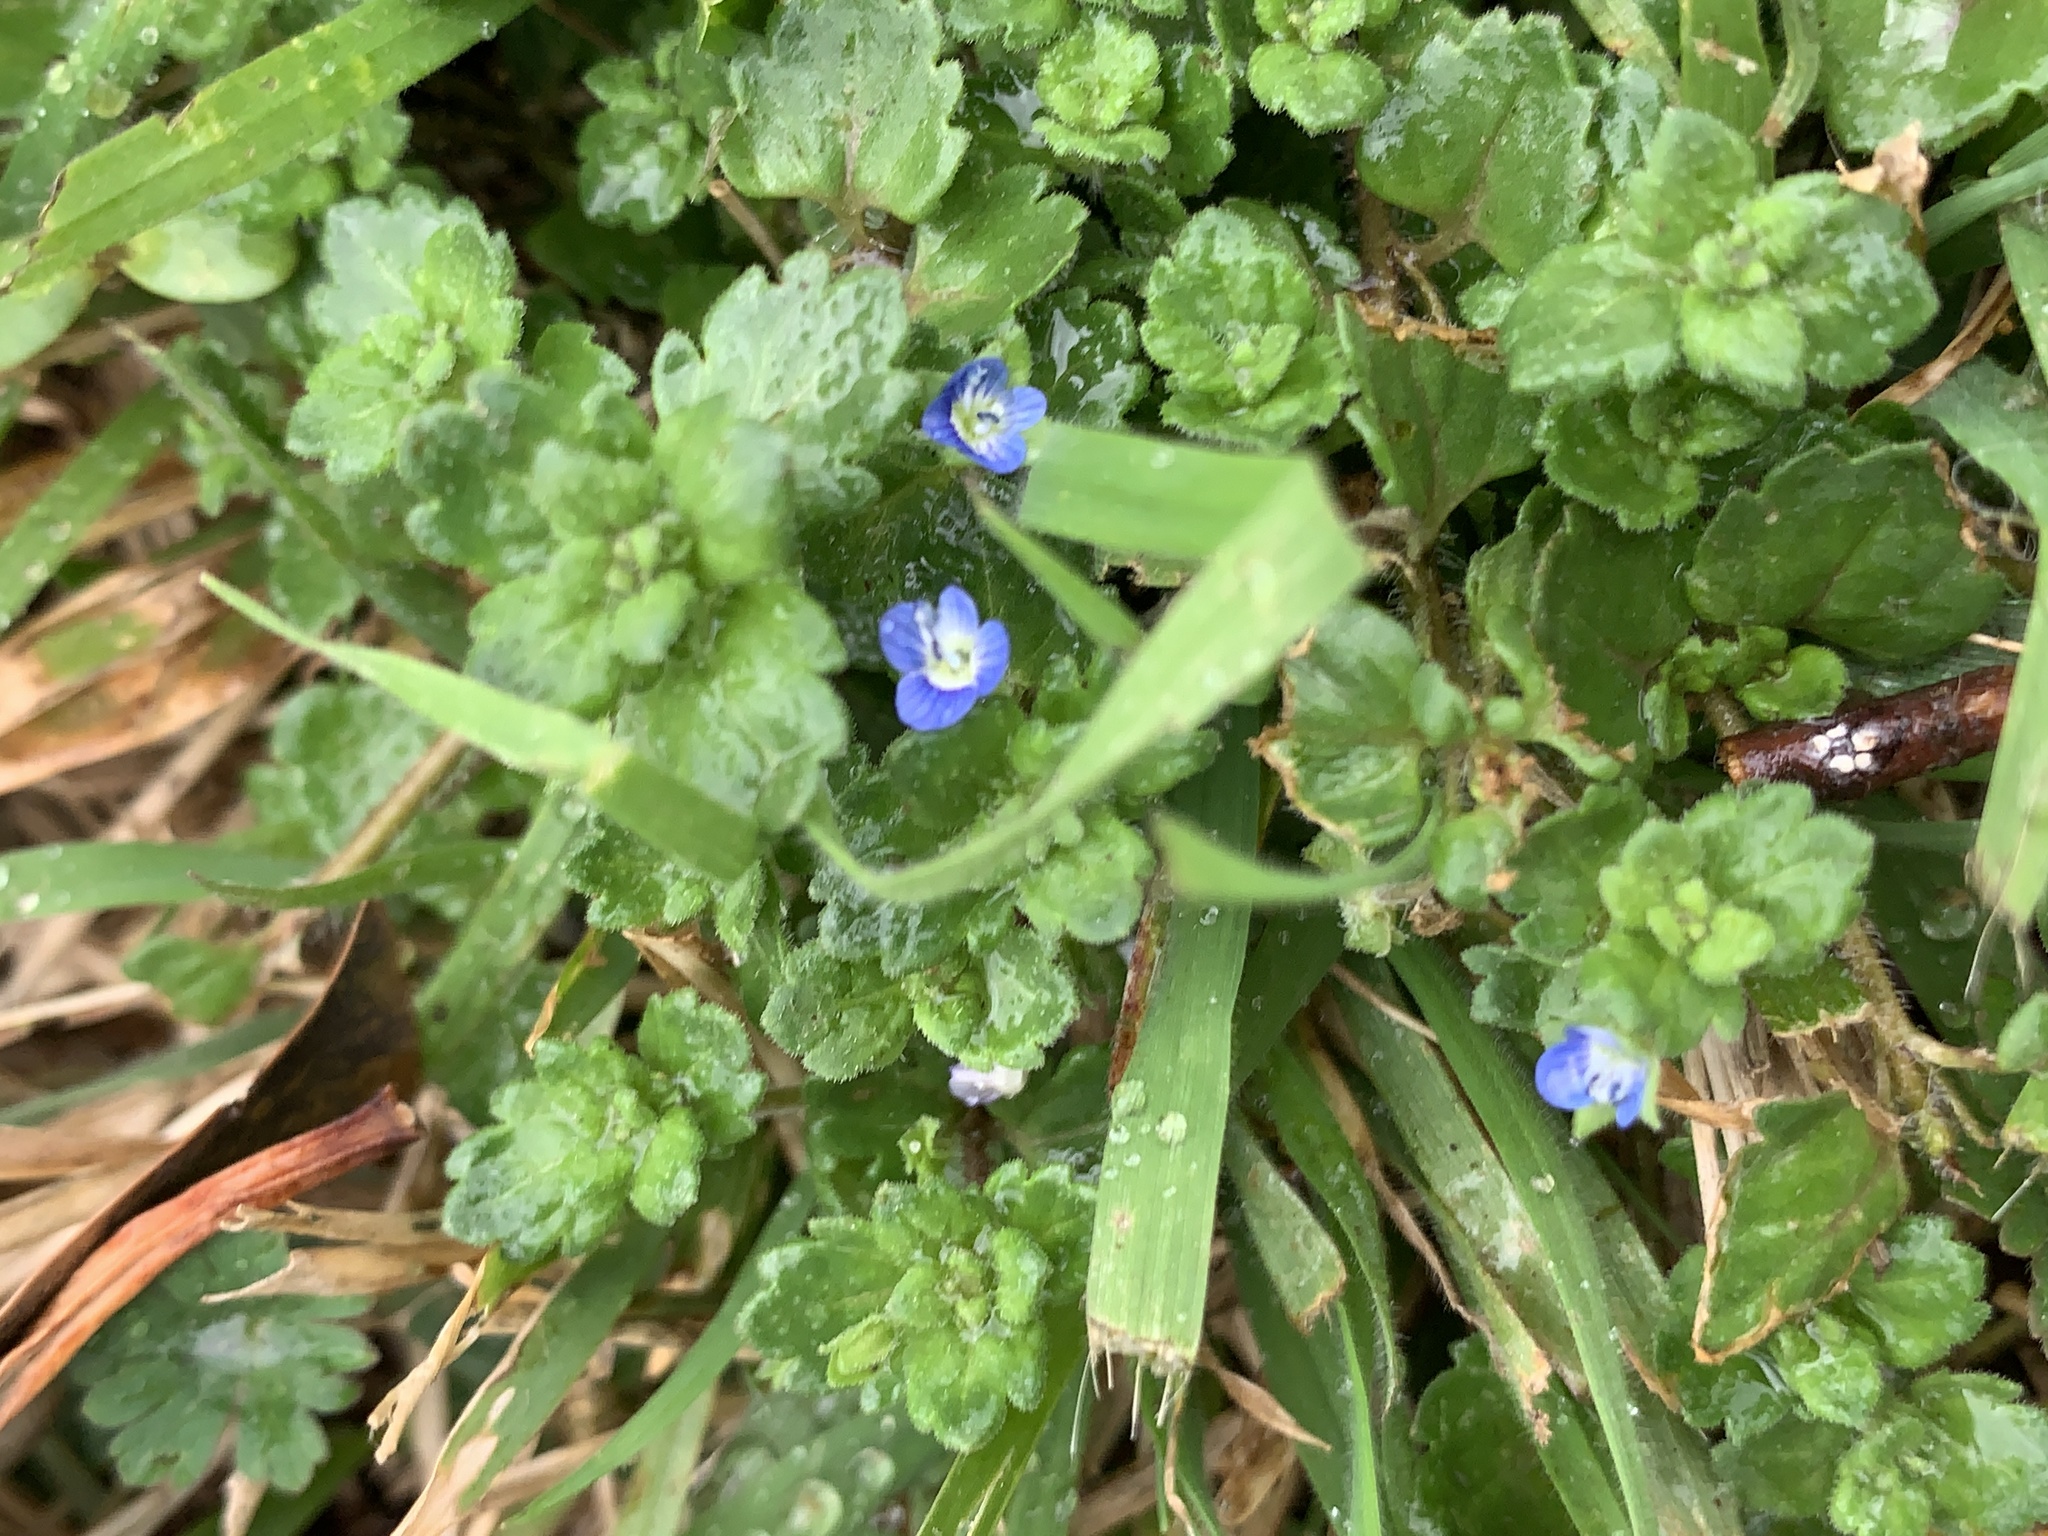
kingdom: Plantae
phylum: Tracheophyta
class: Magnoliopsida
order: Lamiales
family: Plantaginaceae
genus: Veronica
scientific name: Veronica persica
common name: Common field-speedwell
